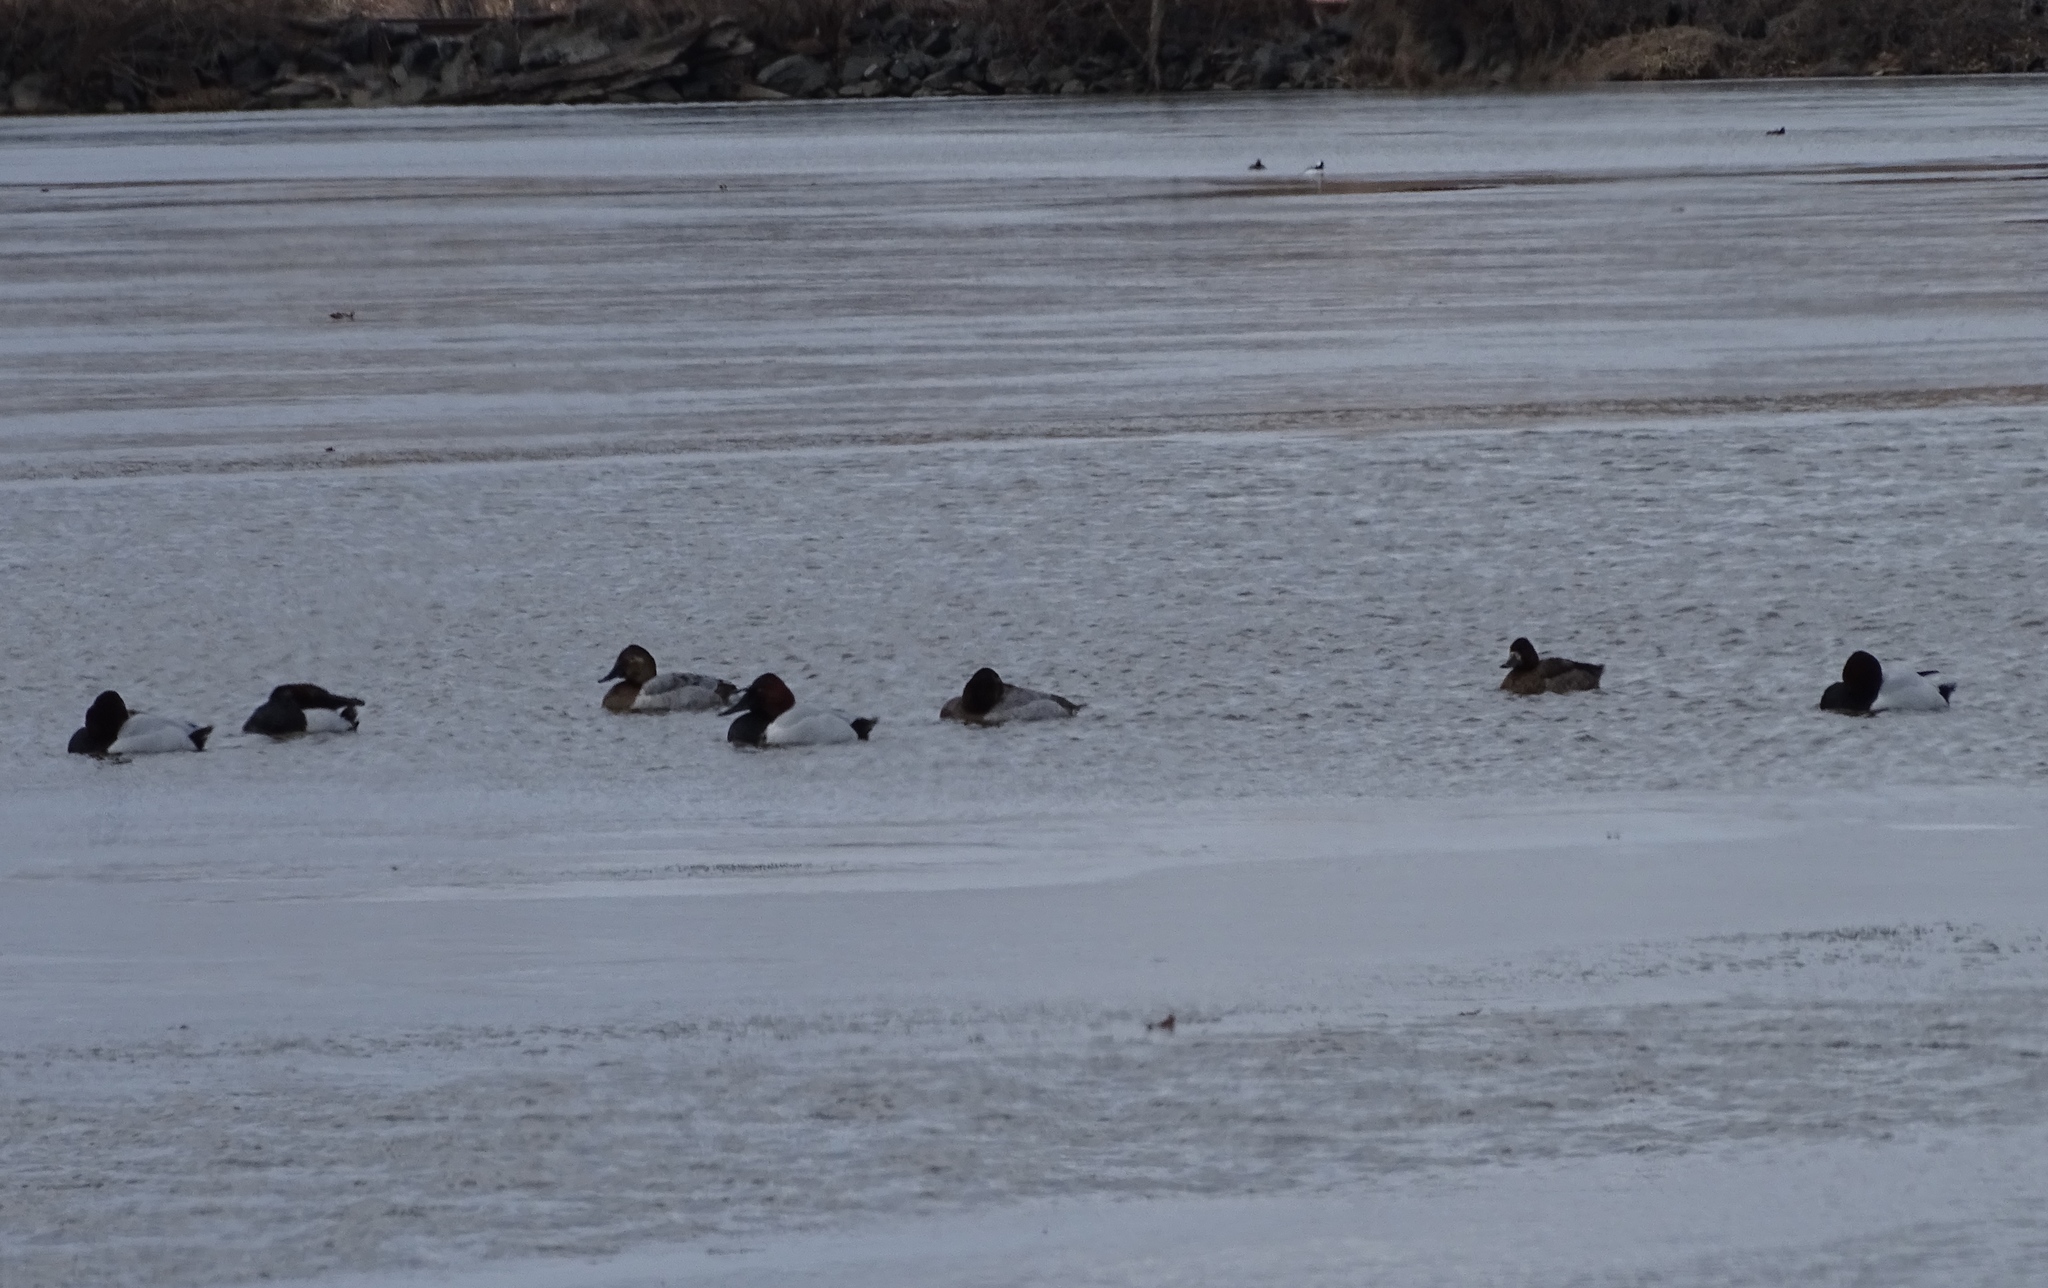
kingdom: Animalia
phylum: Chordata
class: Aves
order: Anseriformes
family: Anatidae
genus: Aythya
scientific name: Aythya valisineria
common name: Canvasback
